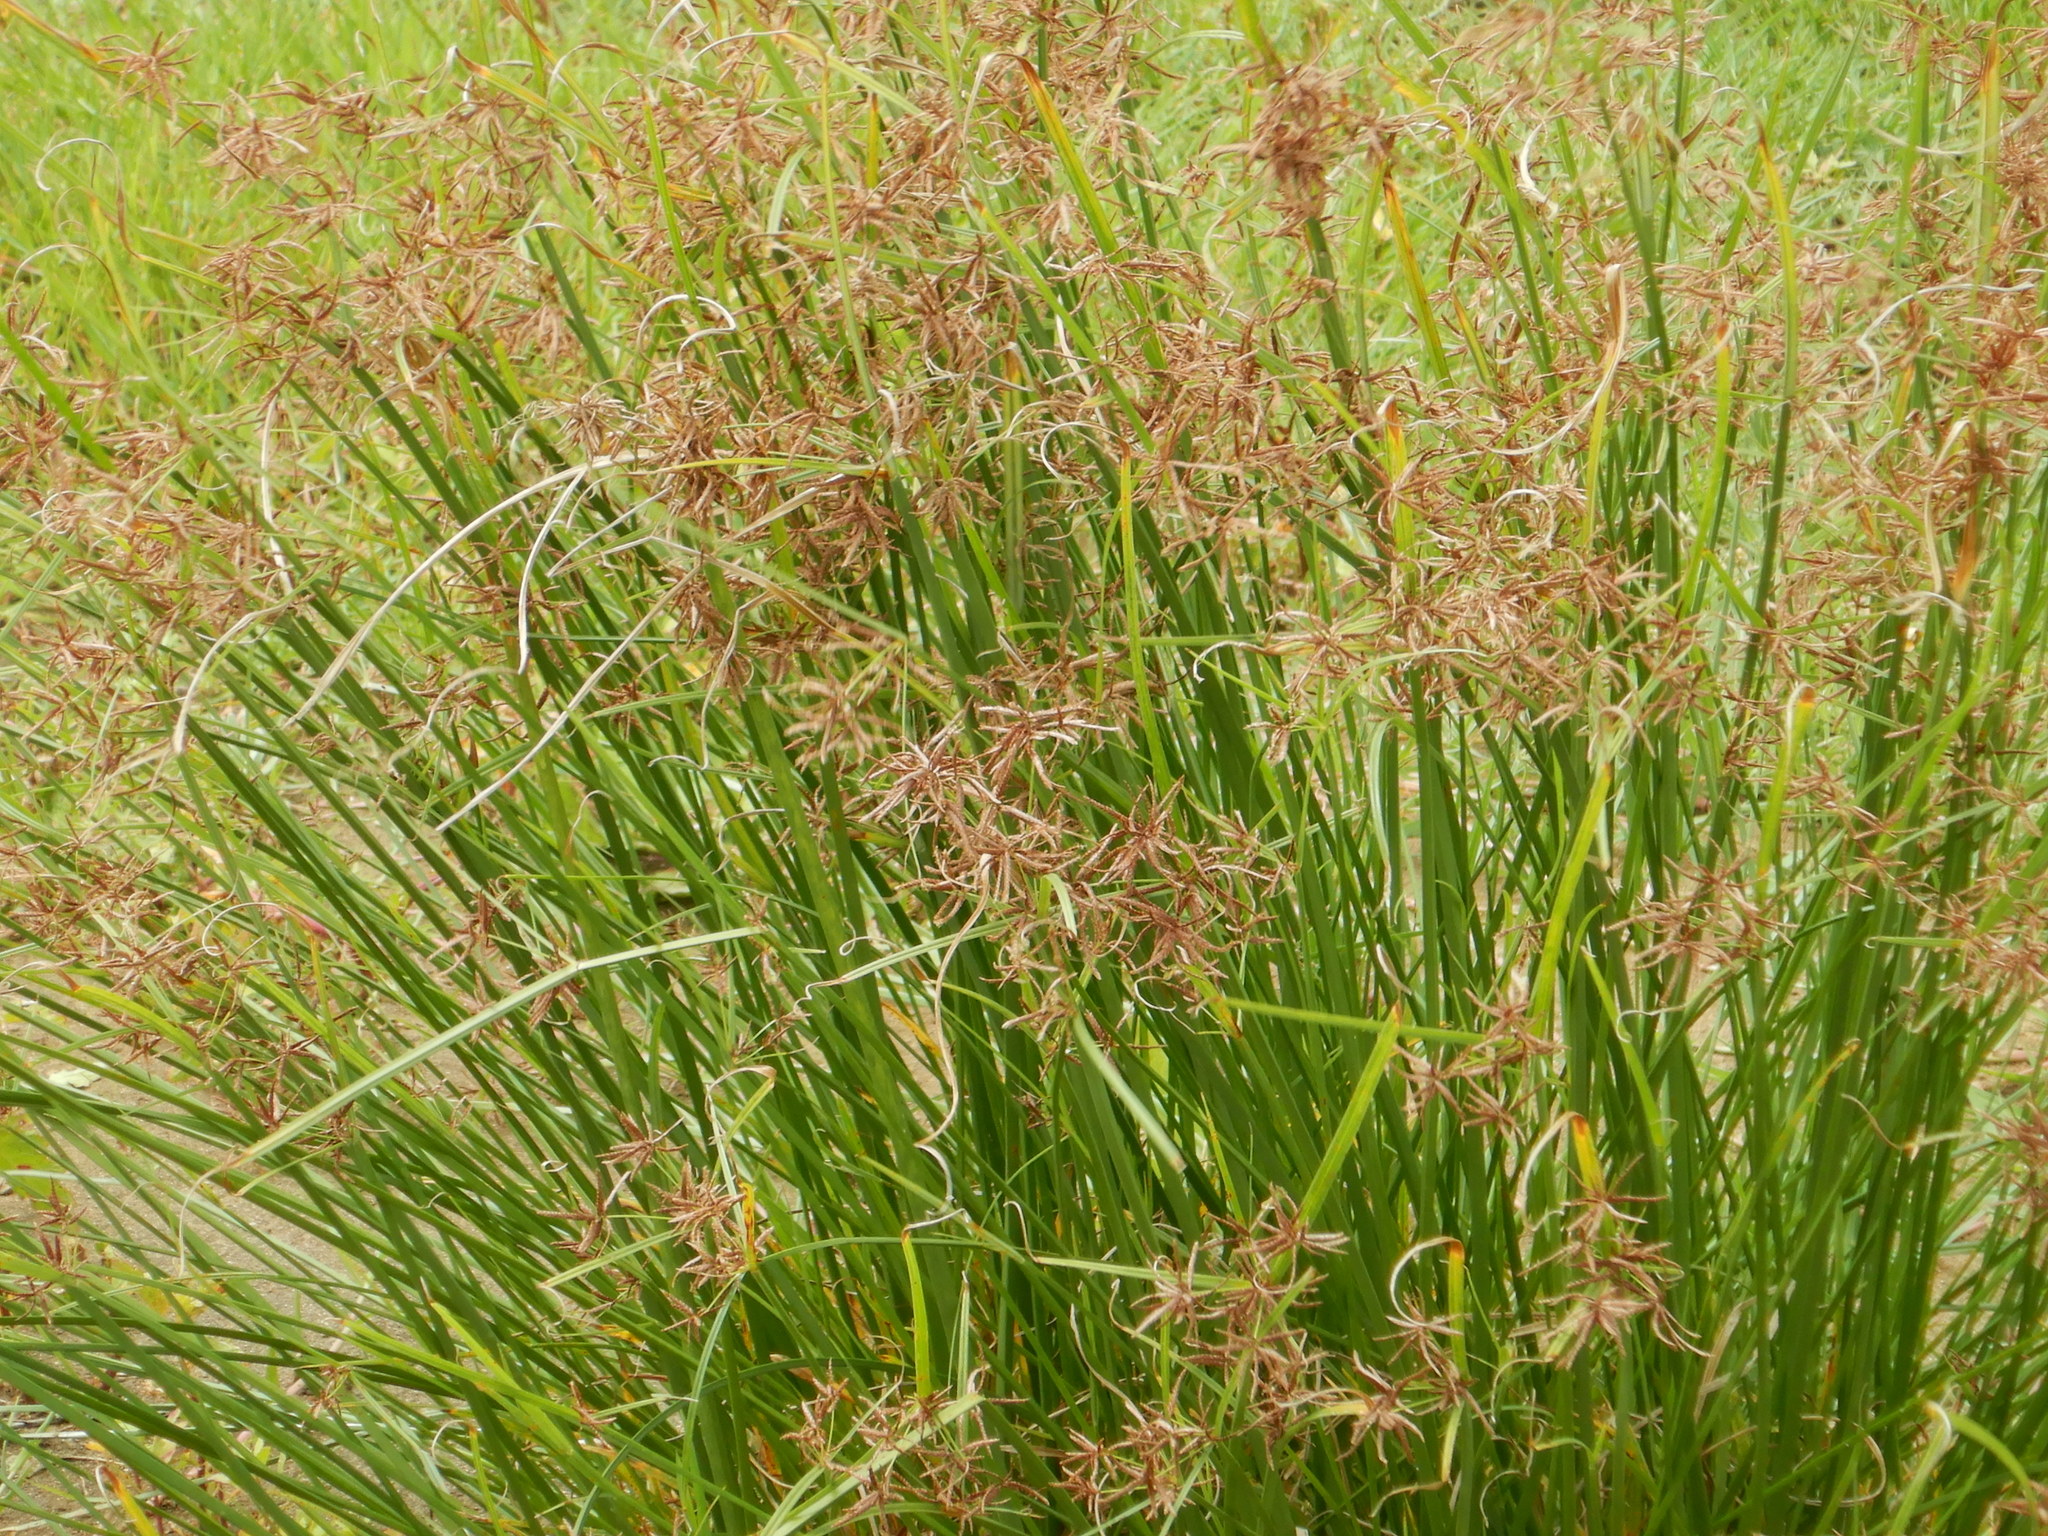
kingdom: Plantae
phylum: Tracheophyta
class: Liliopsida
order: Poales
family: Cyperaceae
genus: Cyperus
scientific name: Cyperus longus
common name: Galingale
